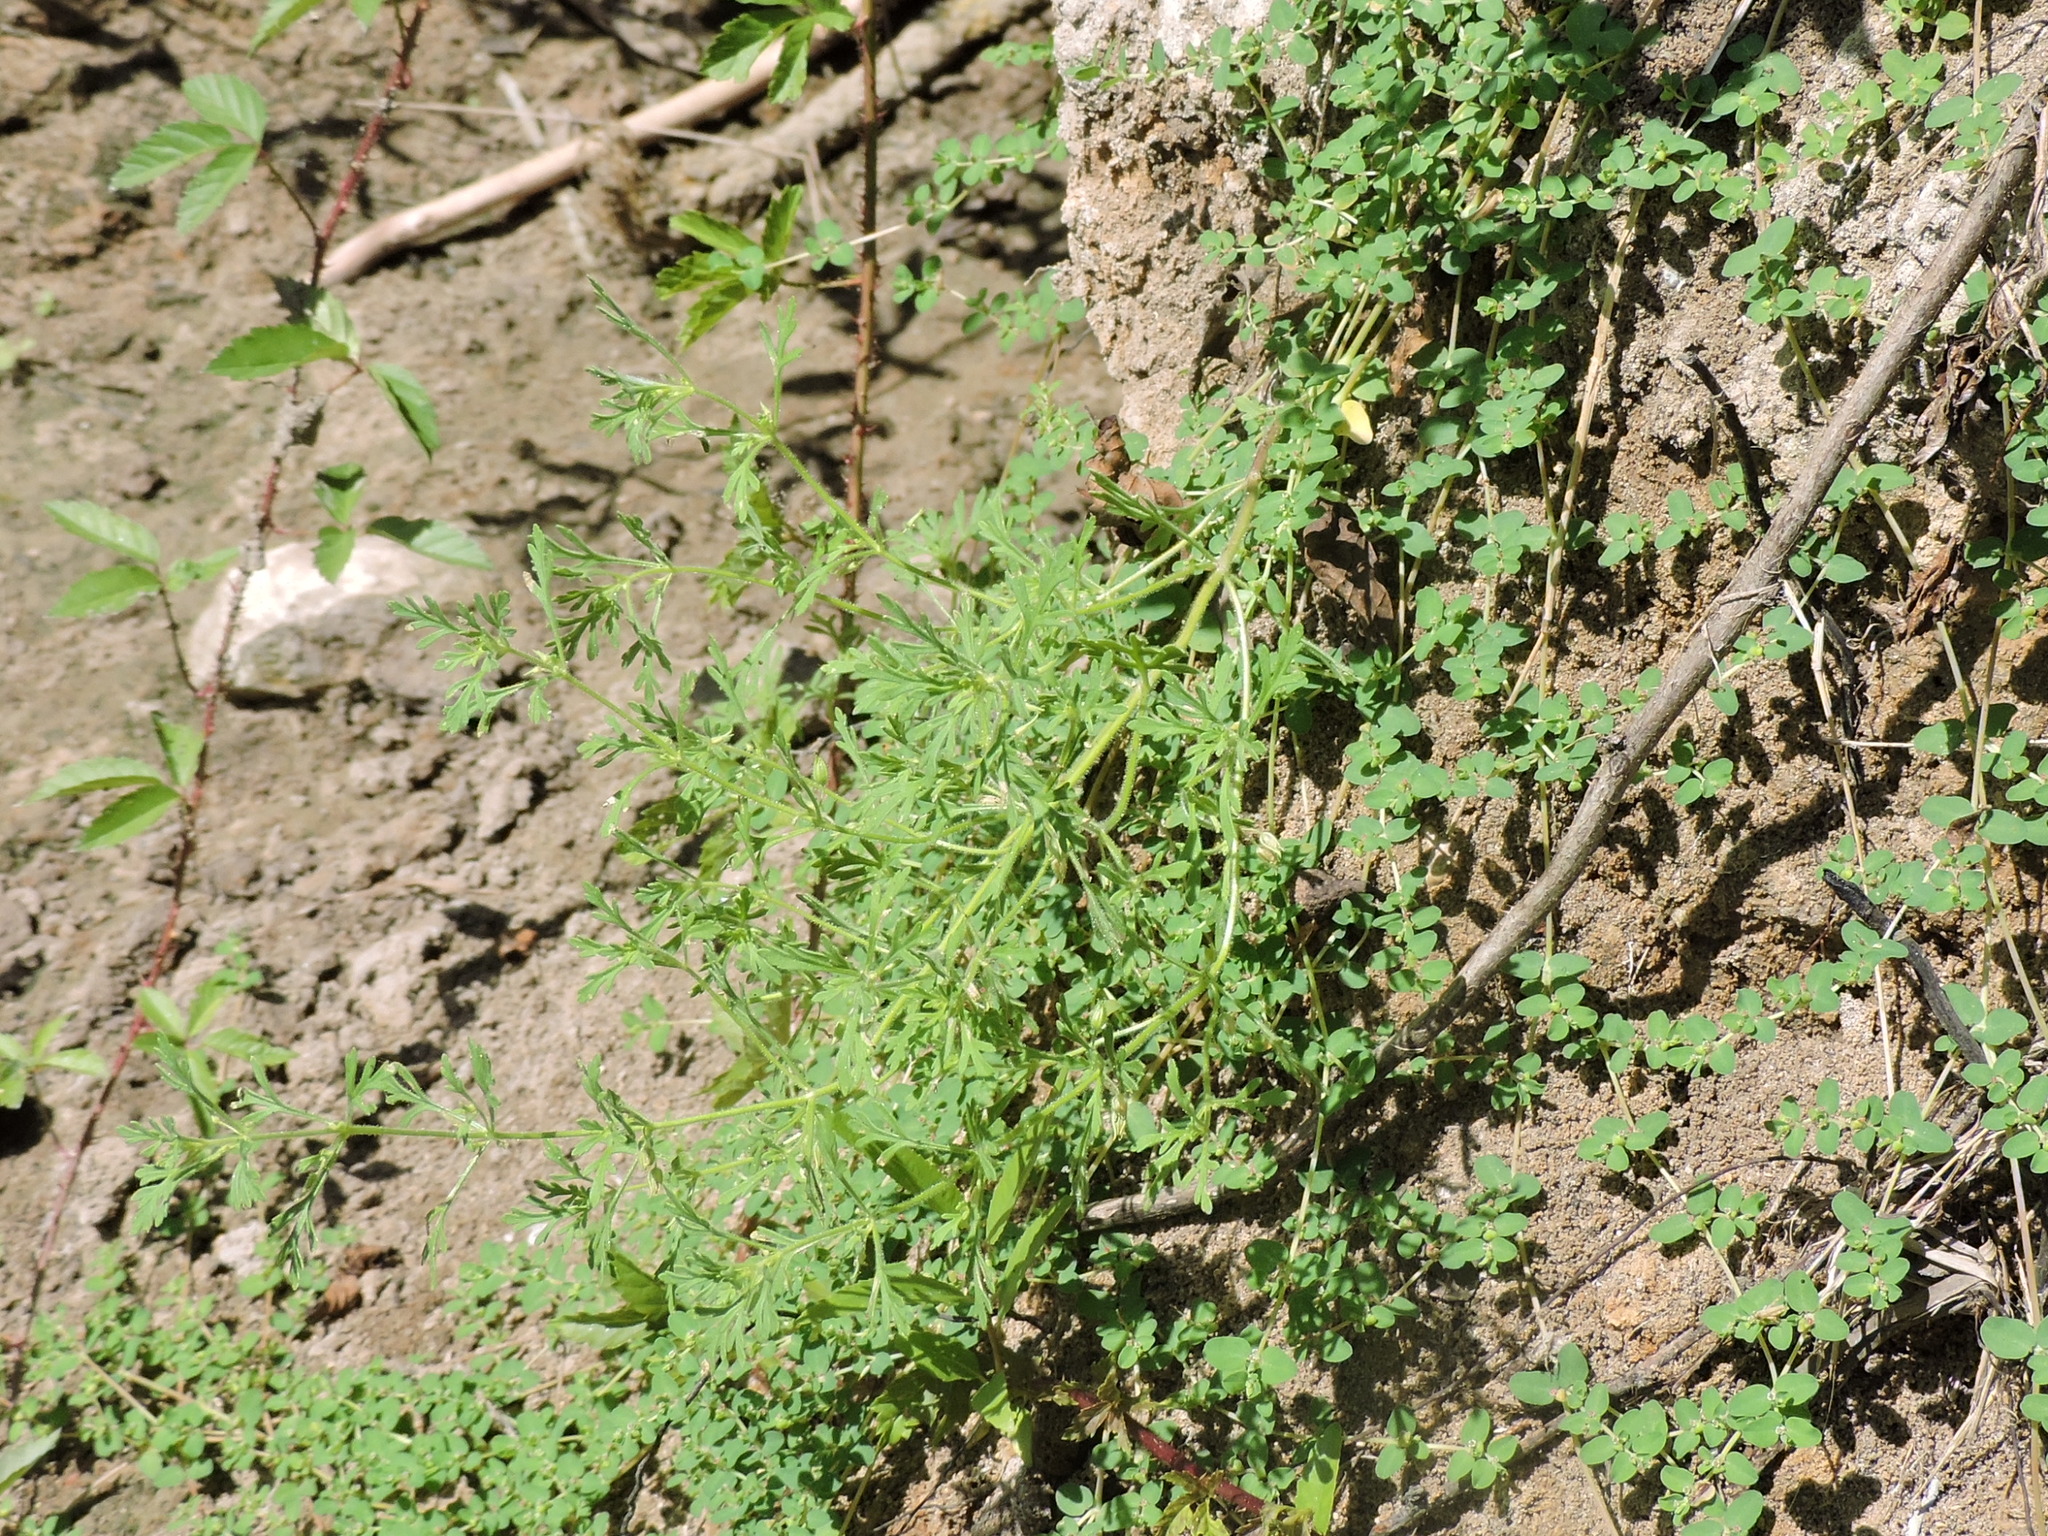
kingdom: Plantae
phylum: Tracheophyta
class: Magnoliopsida
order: Lamiales
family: Plantaginaceae
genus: Leucospora
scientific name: Leucospora multifida
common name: Narrow-leaf paleseed
